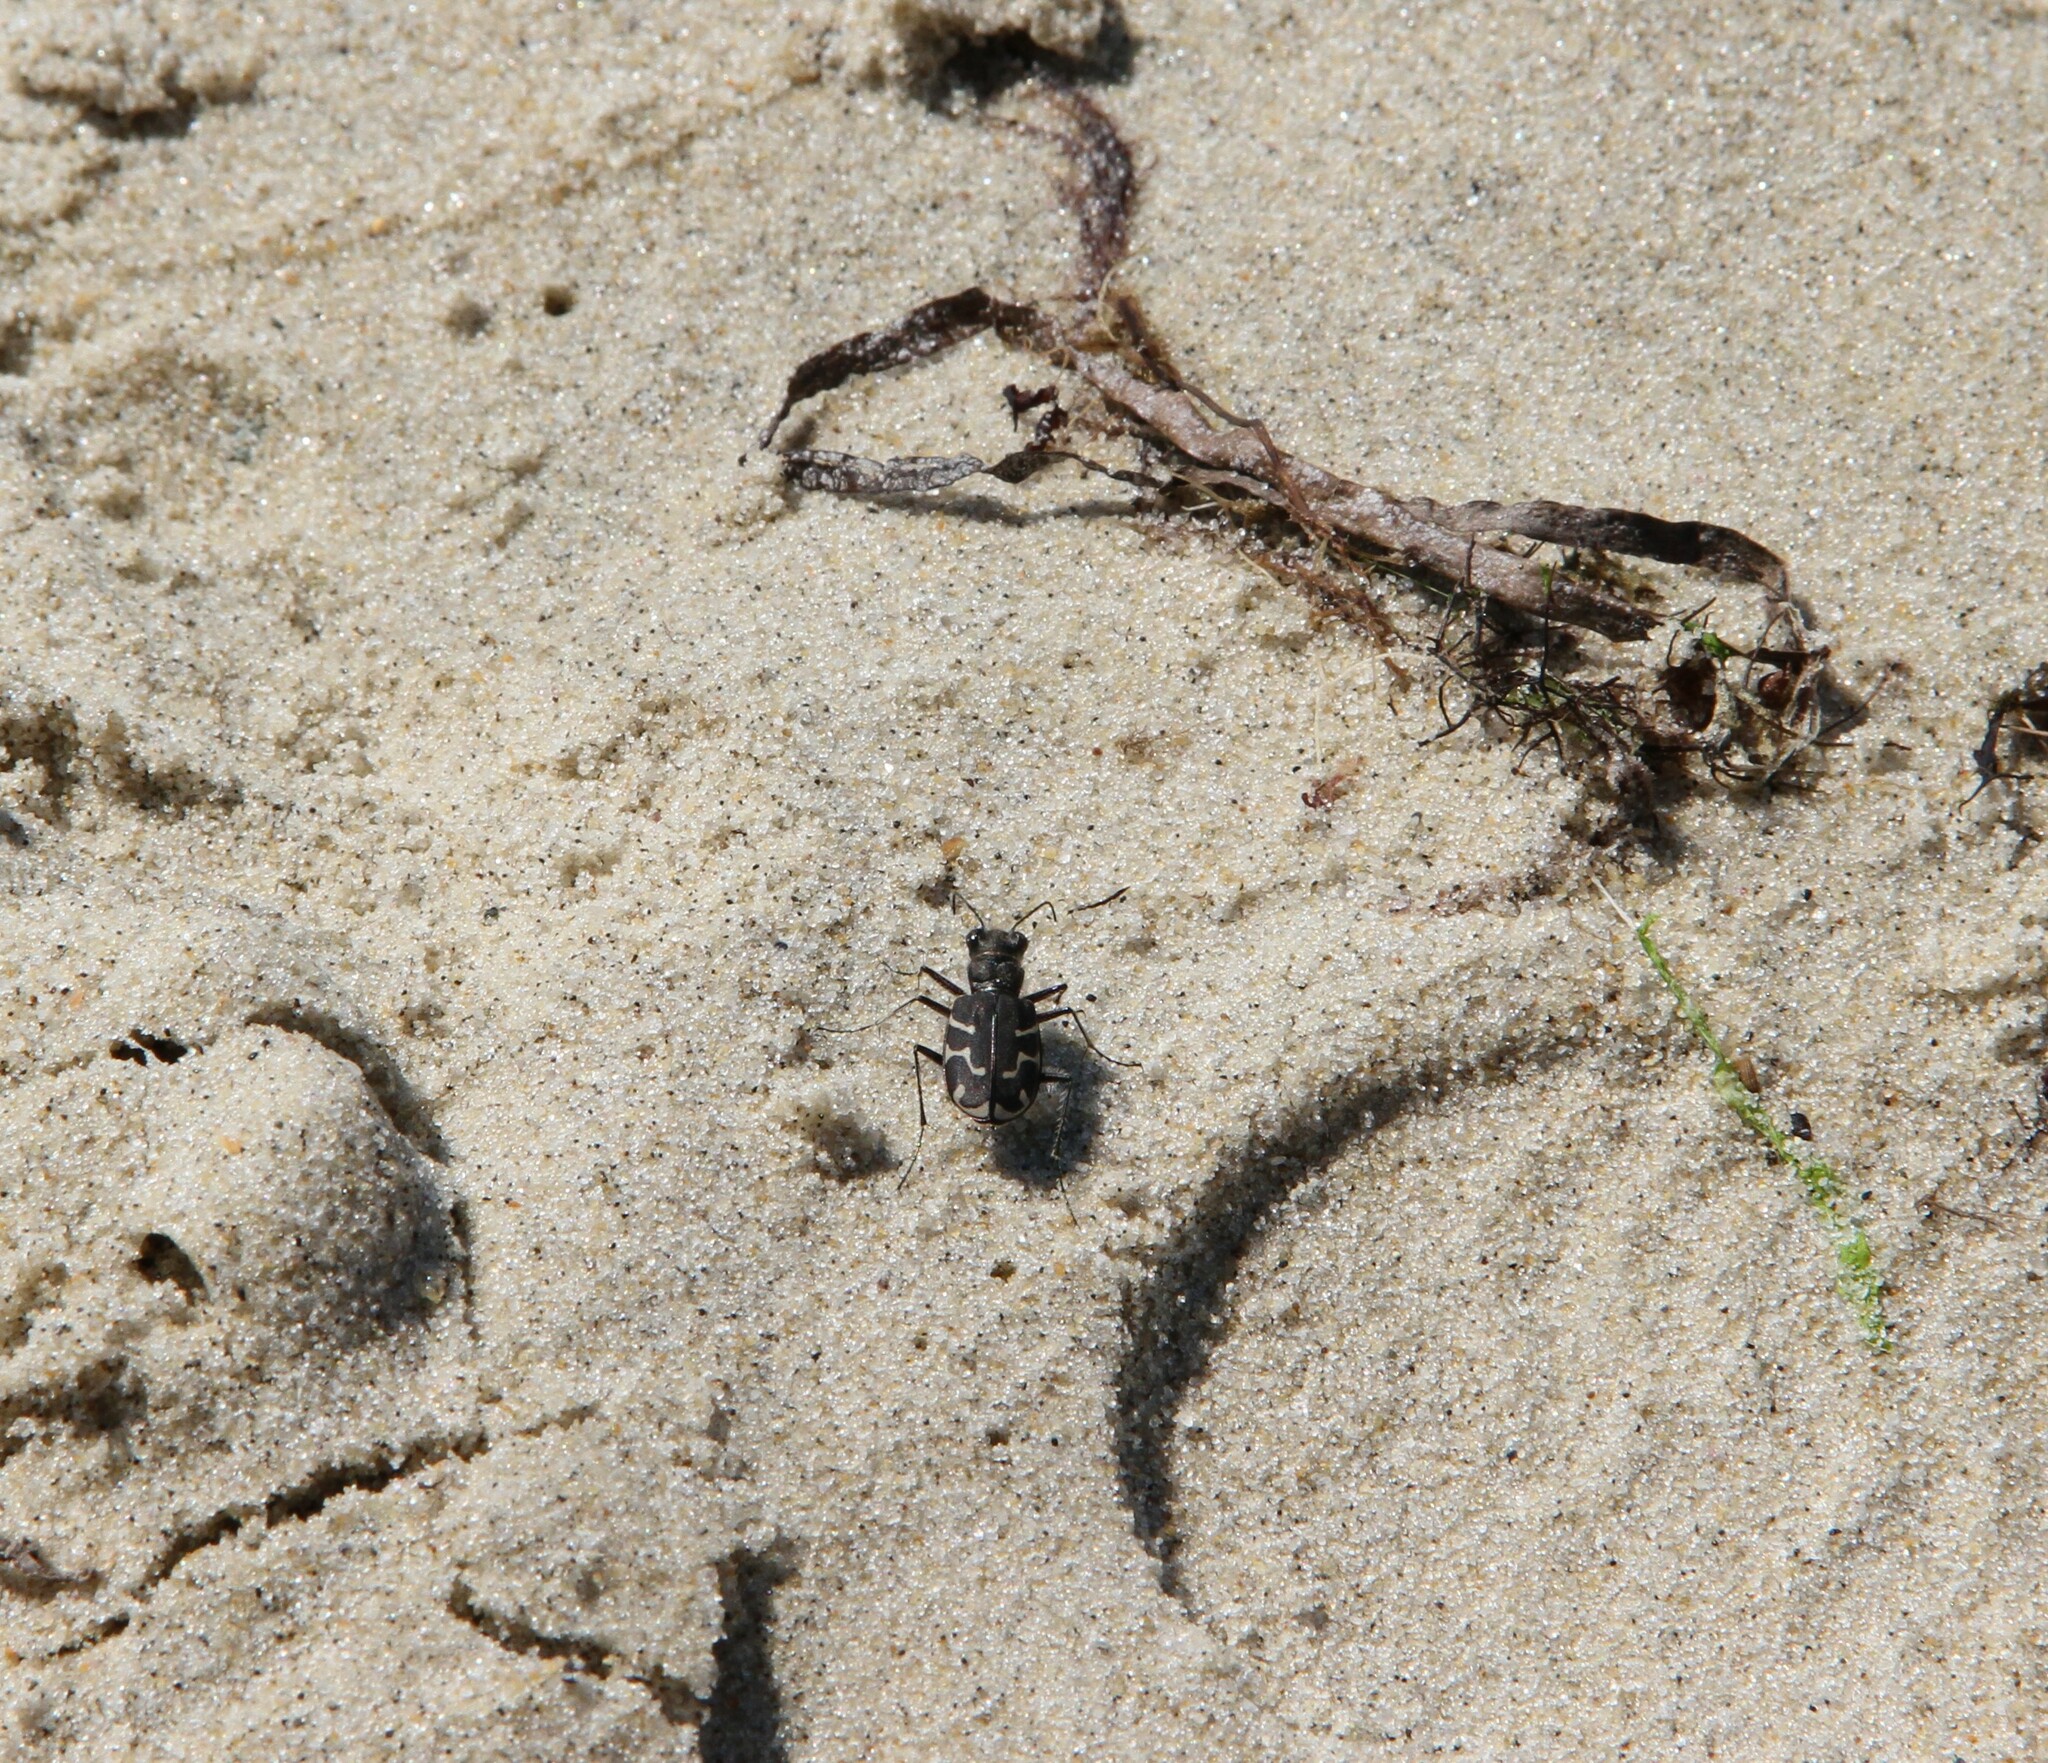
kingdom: Animalia
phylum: Arthropoda
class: Insecta
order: Coleoptera
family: Carabidae
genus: Cicindela
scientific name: Cicindela tranquebarica
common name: Oblique-lined tiger beetle
